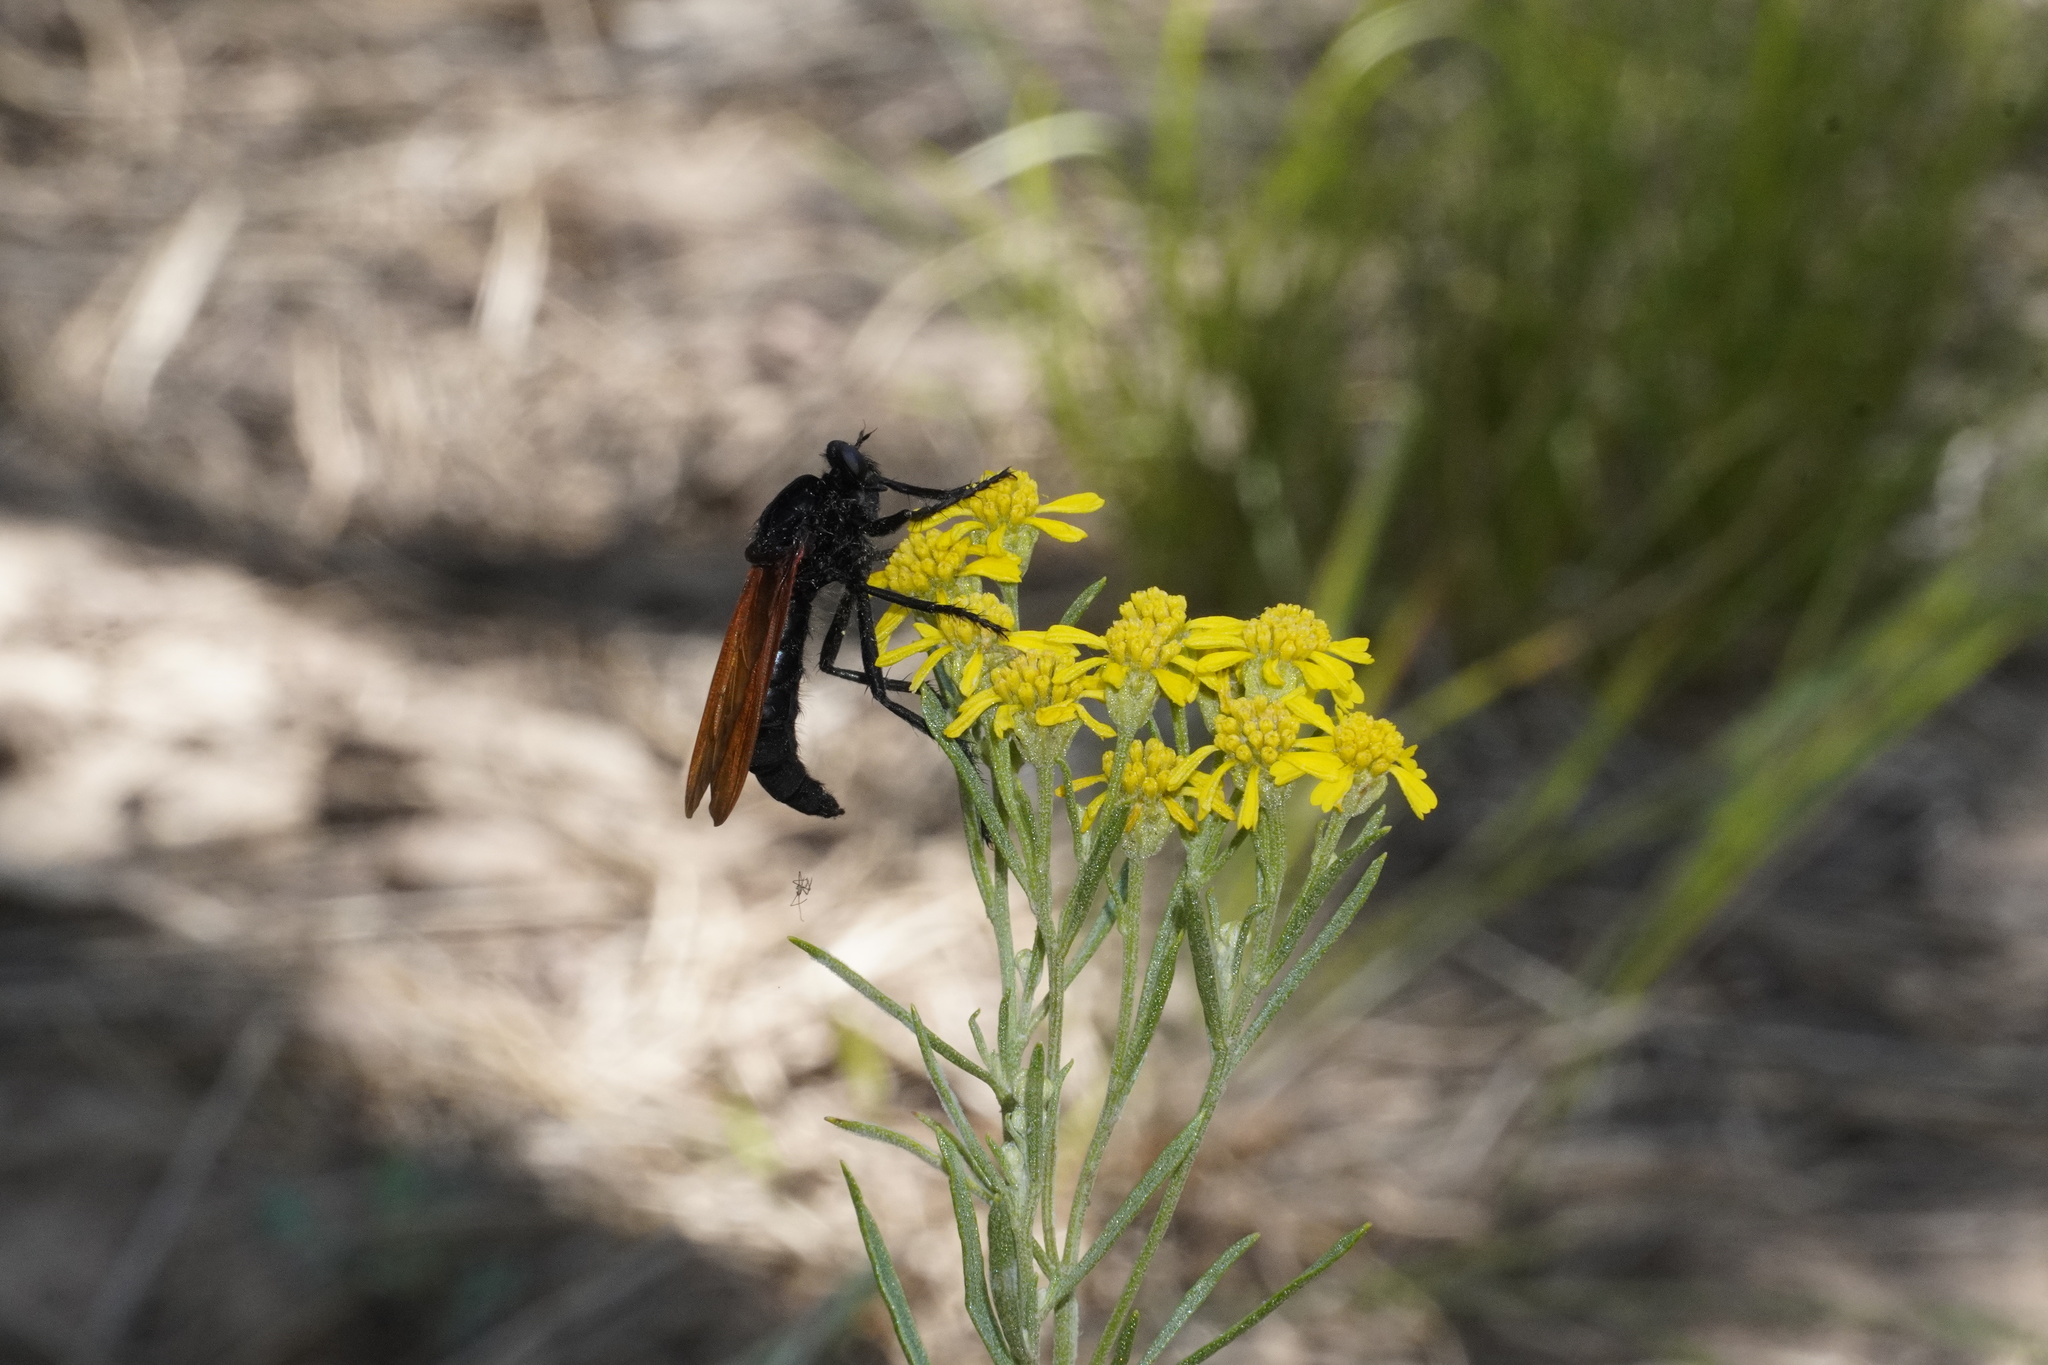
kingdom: Animalia
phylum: Arthropoda
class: Insecta
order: Diptera
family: Asilidae
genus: Wilcoxius
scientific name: Wilcoxius mydas
